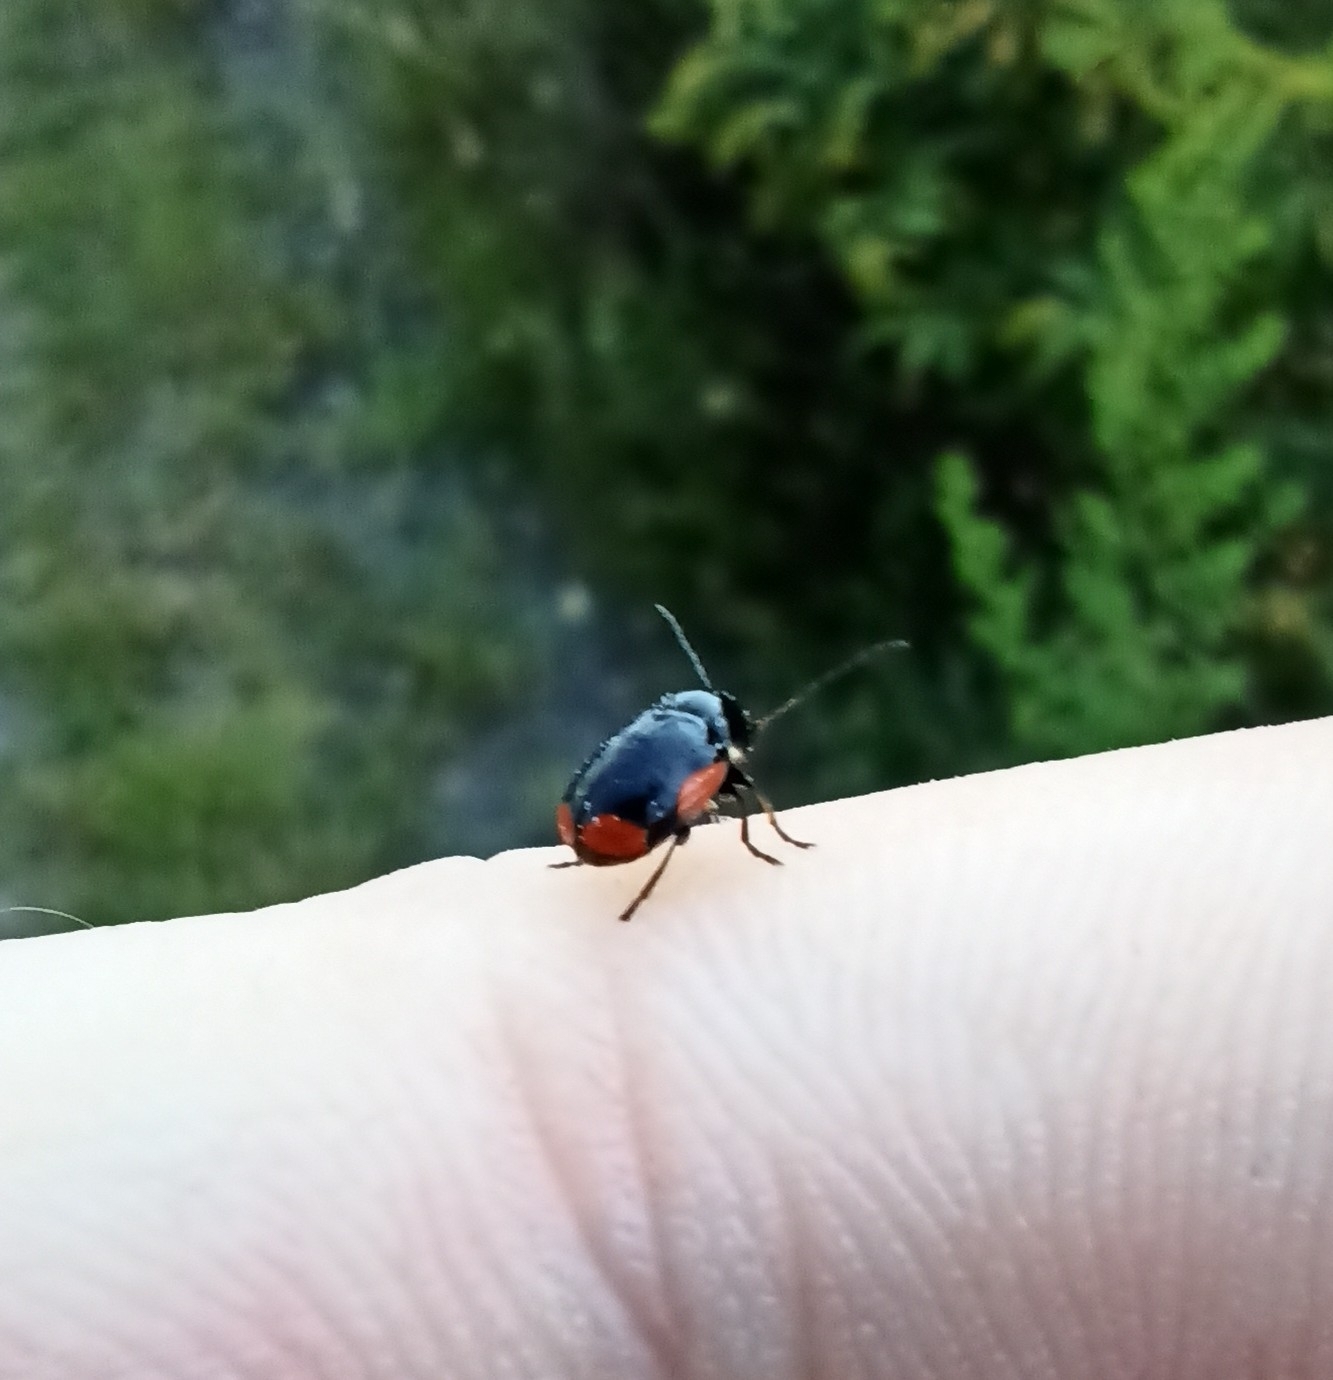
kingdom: Animalia
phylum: Arthropoda
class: Insecta
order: Coleoptera
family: Chrysomelidae
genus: Cryptocephalus
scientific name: Cryptocephalus moraei
